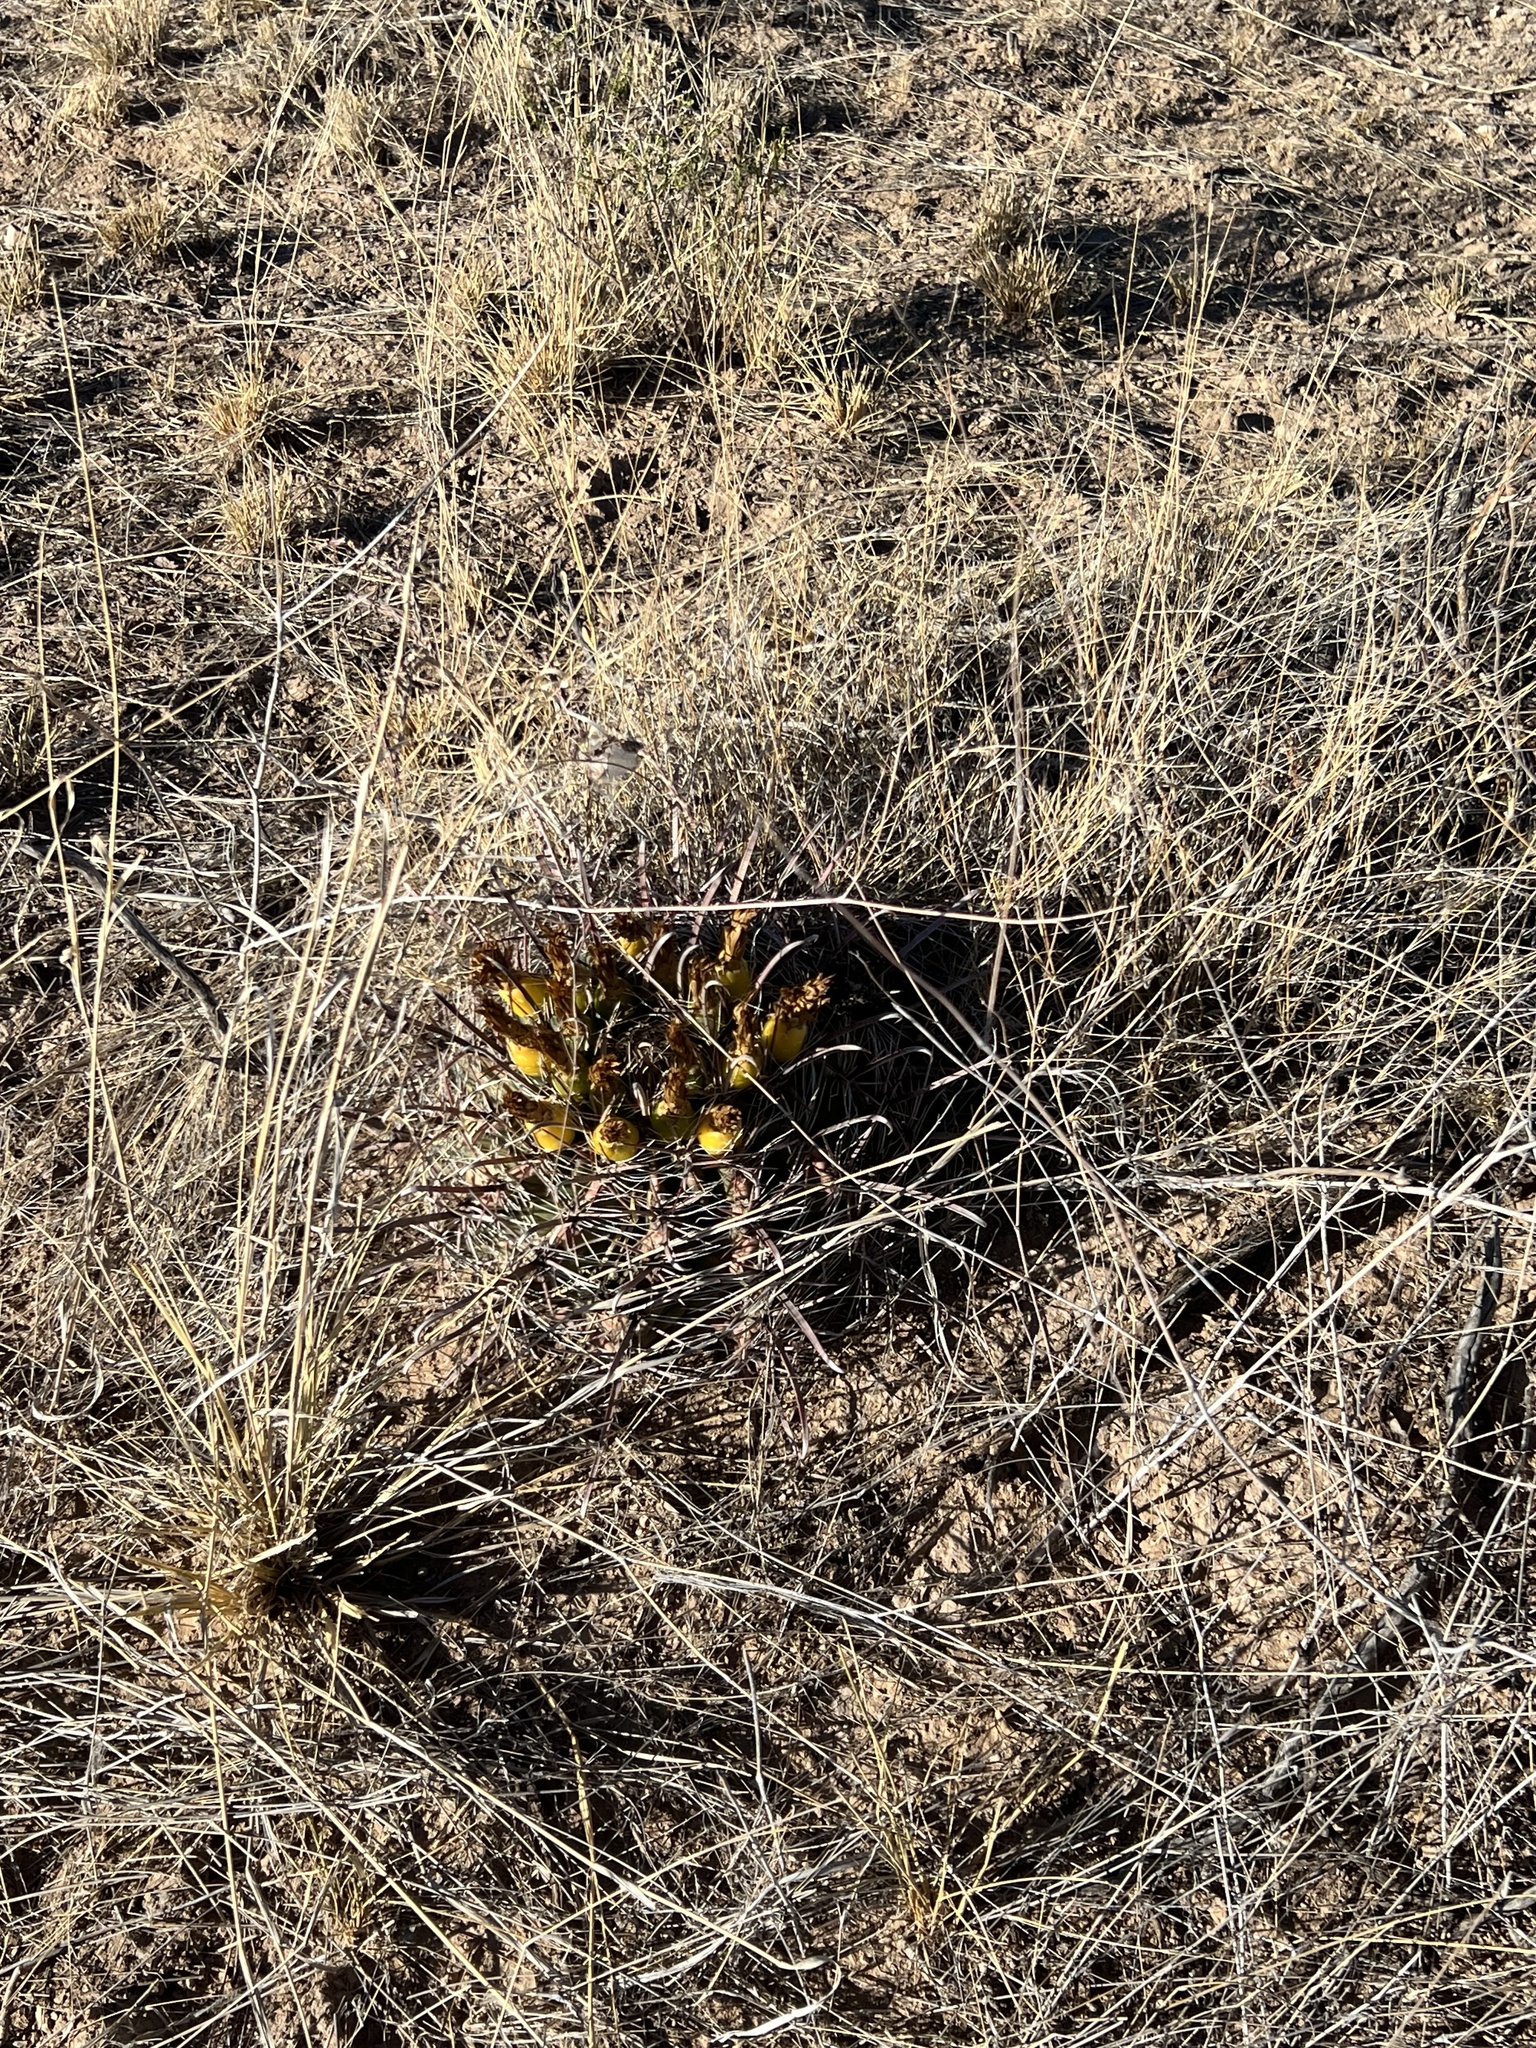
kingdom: Plantae
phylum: Tracheophyta
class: Magnoliopsida
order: Caryophyllales
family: Cactaceae
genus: Ferocactus
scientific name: Ferocactus wislizeni
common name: Candy barrel cactus
